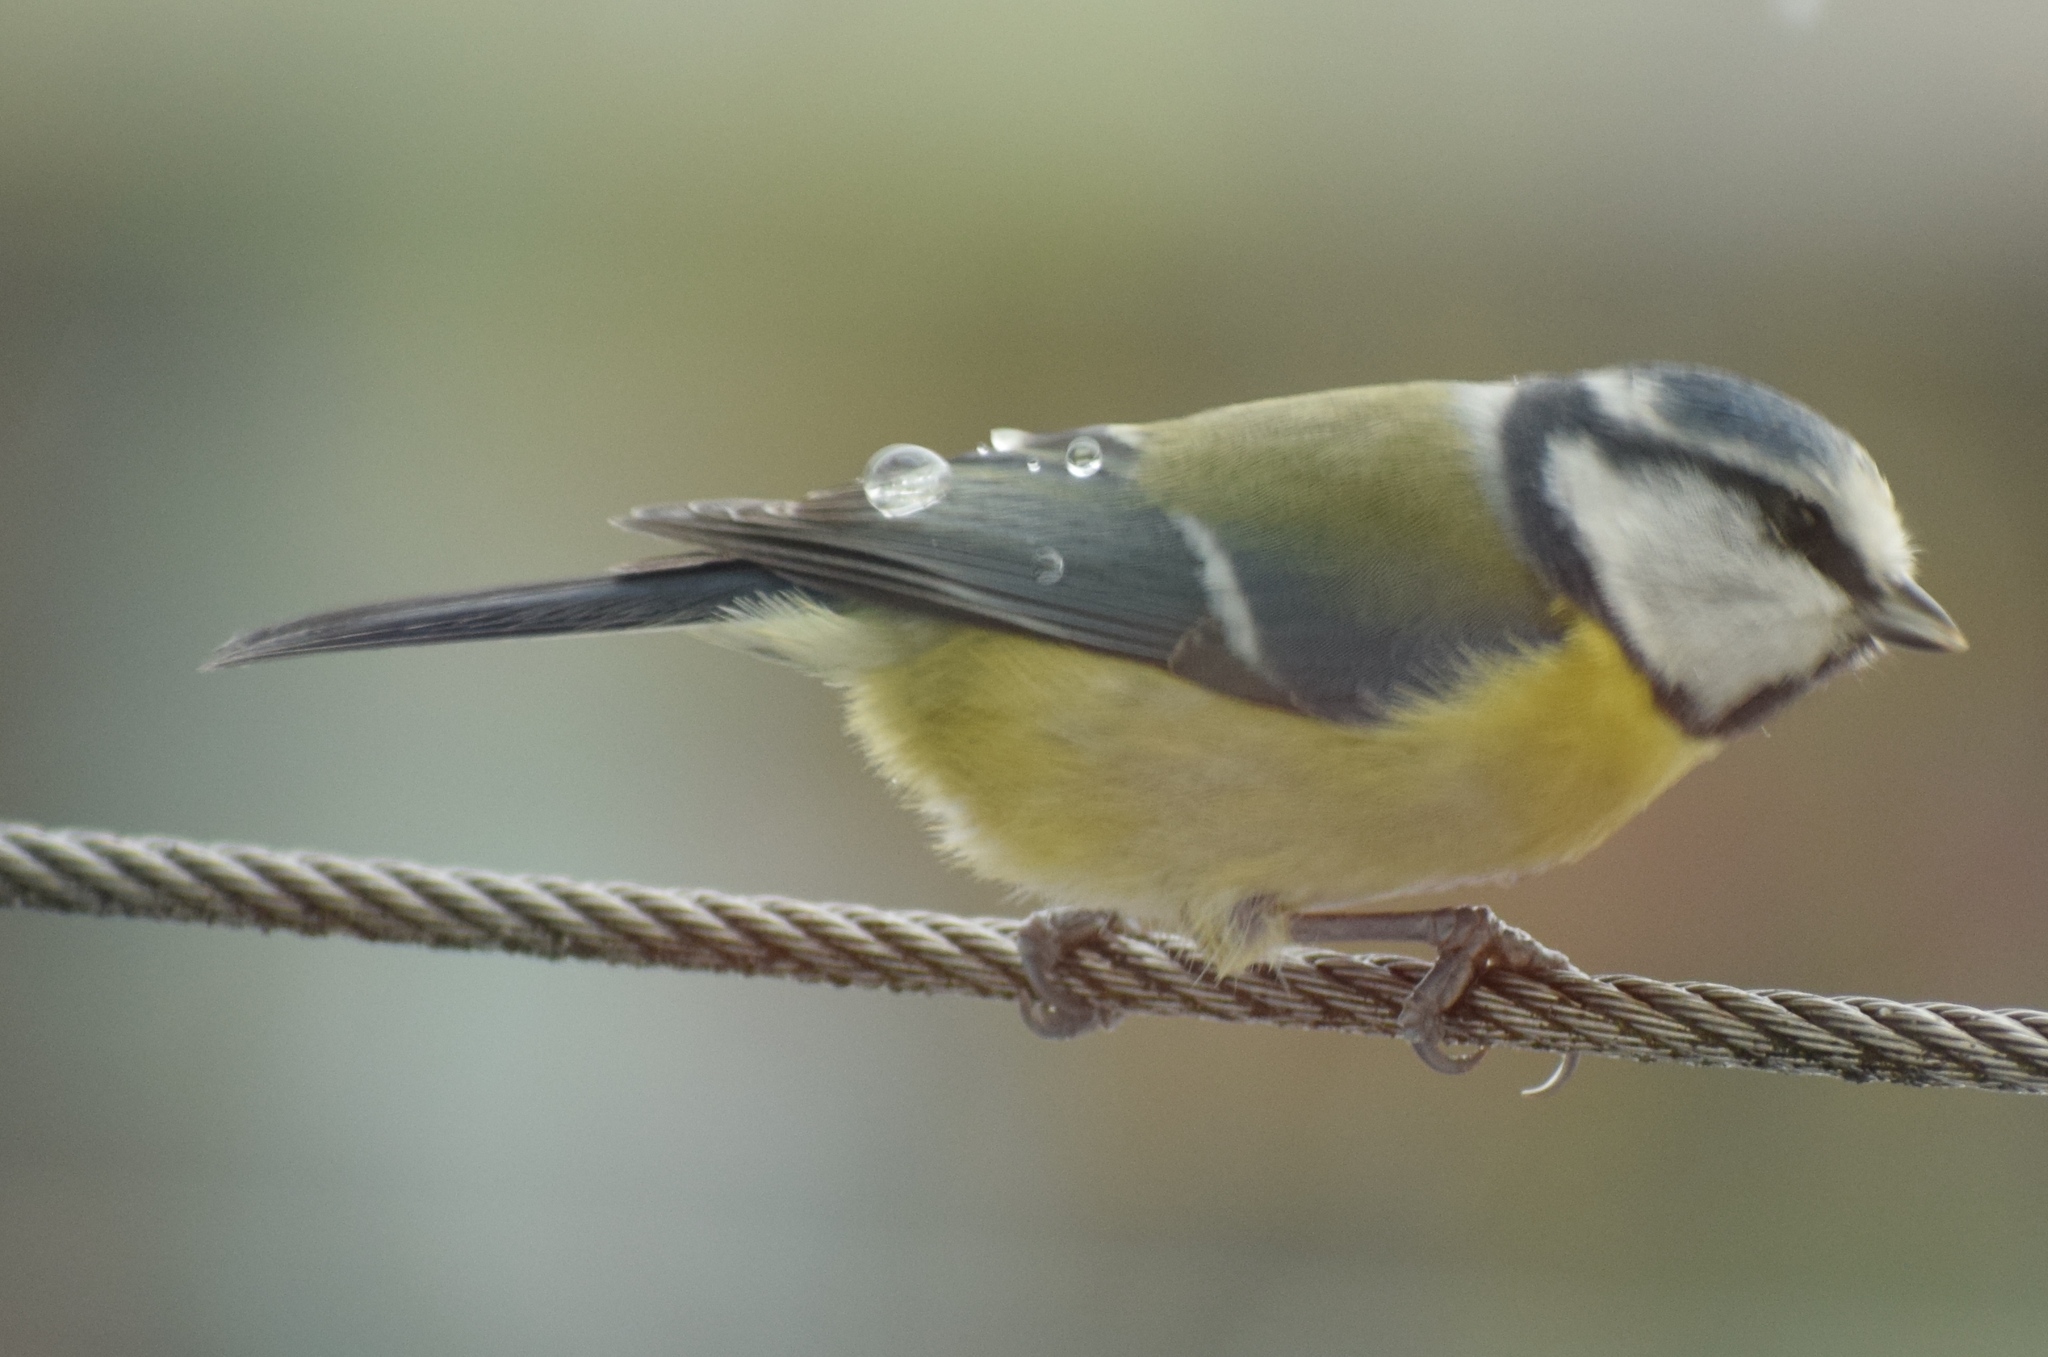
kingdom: Animalia
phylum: Chordata
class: Aves
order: Passeriformes
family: Paridae
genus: Cyanistes
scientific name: Cyanistes caeruleus
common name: Eurasian blue tit
